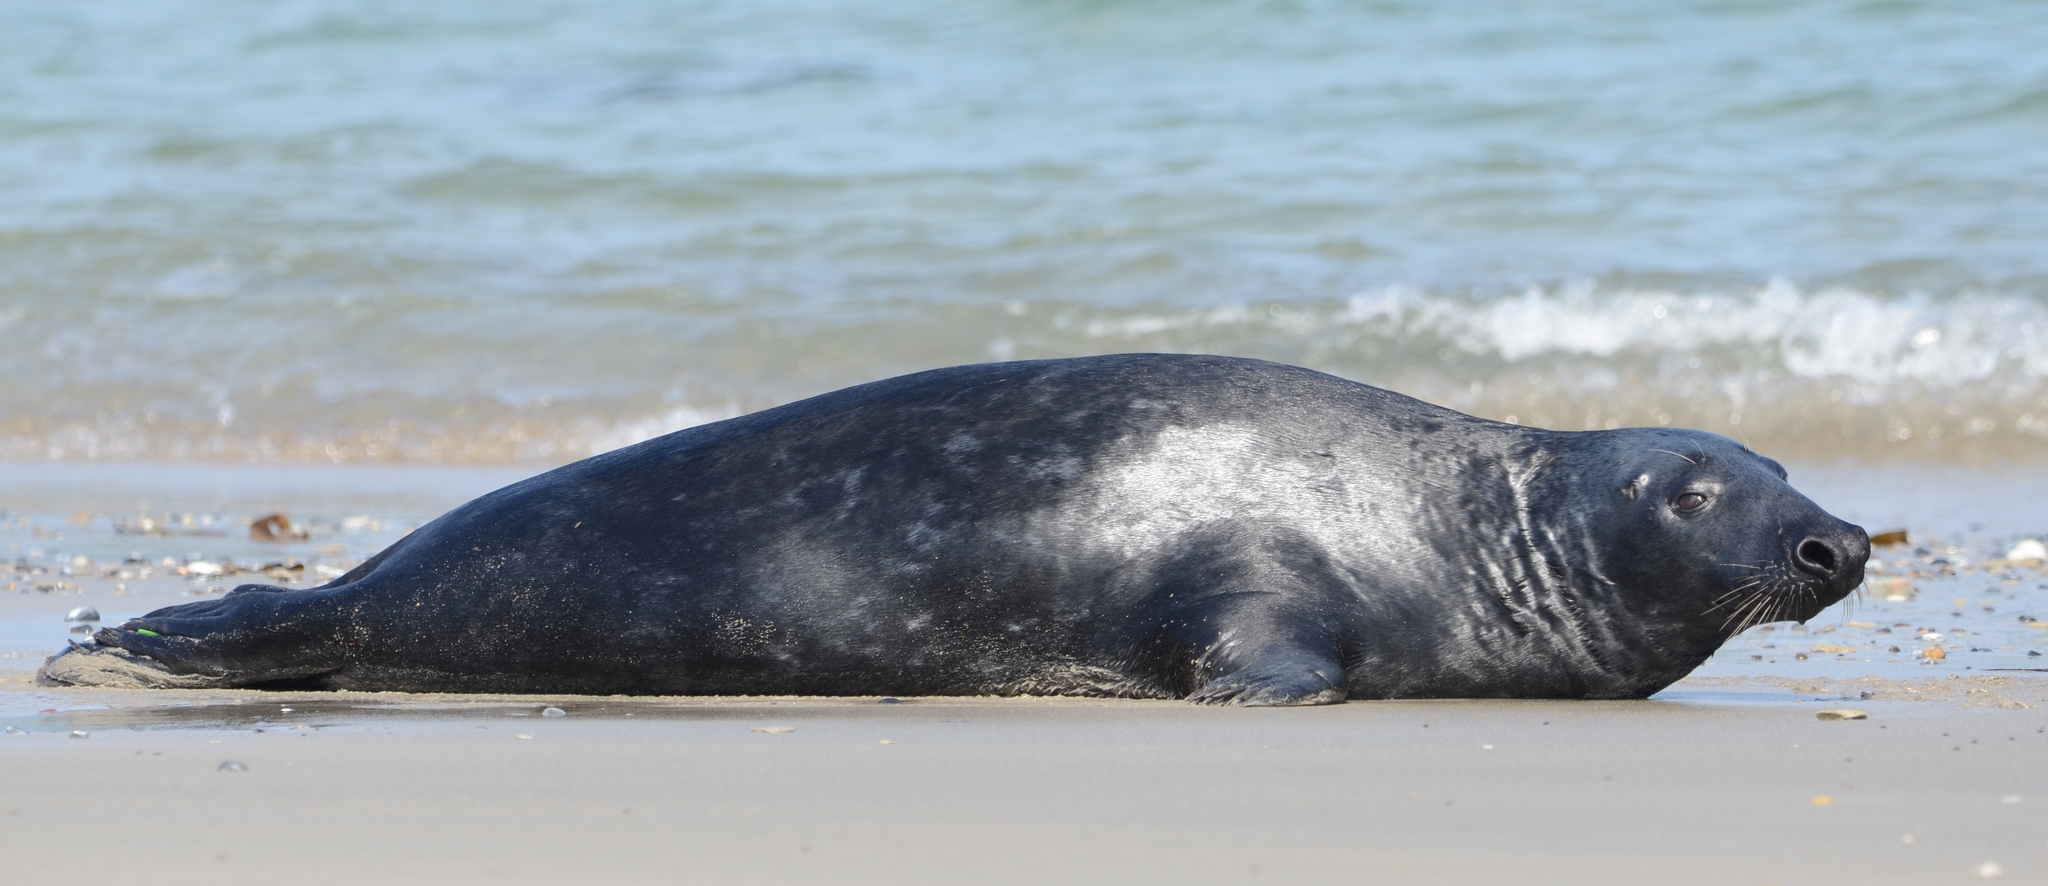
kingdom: Animalia
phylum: Chordata
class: Mammalia
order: Carnivora
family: Phocidae
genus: Halichoerus
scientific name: Halichoerus grypus
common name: Grey seal
